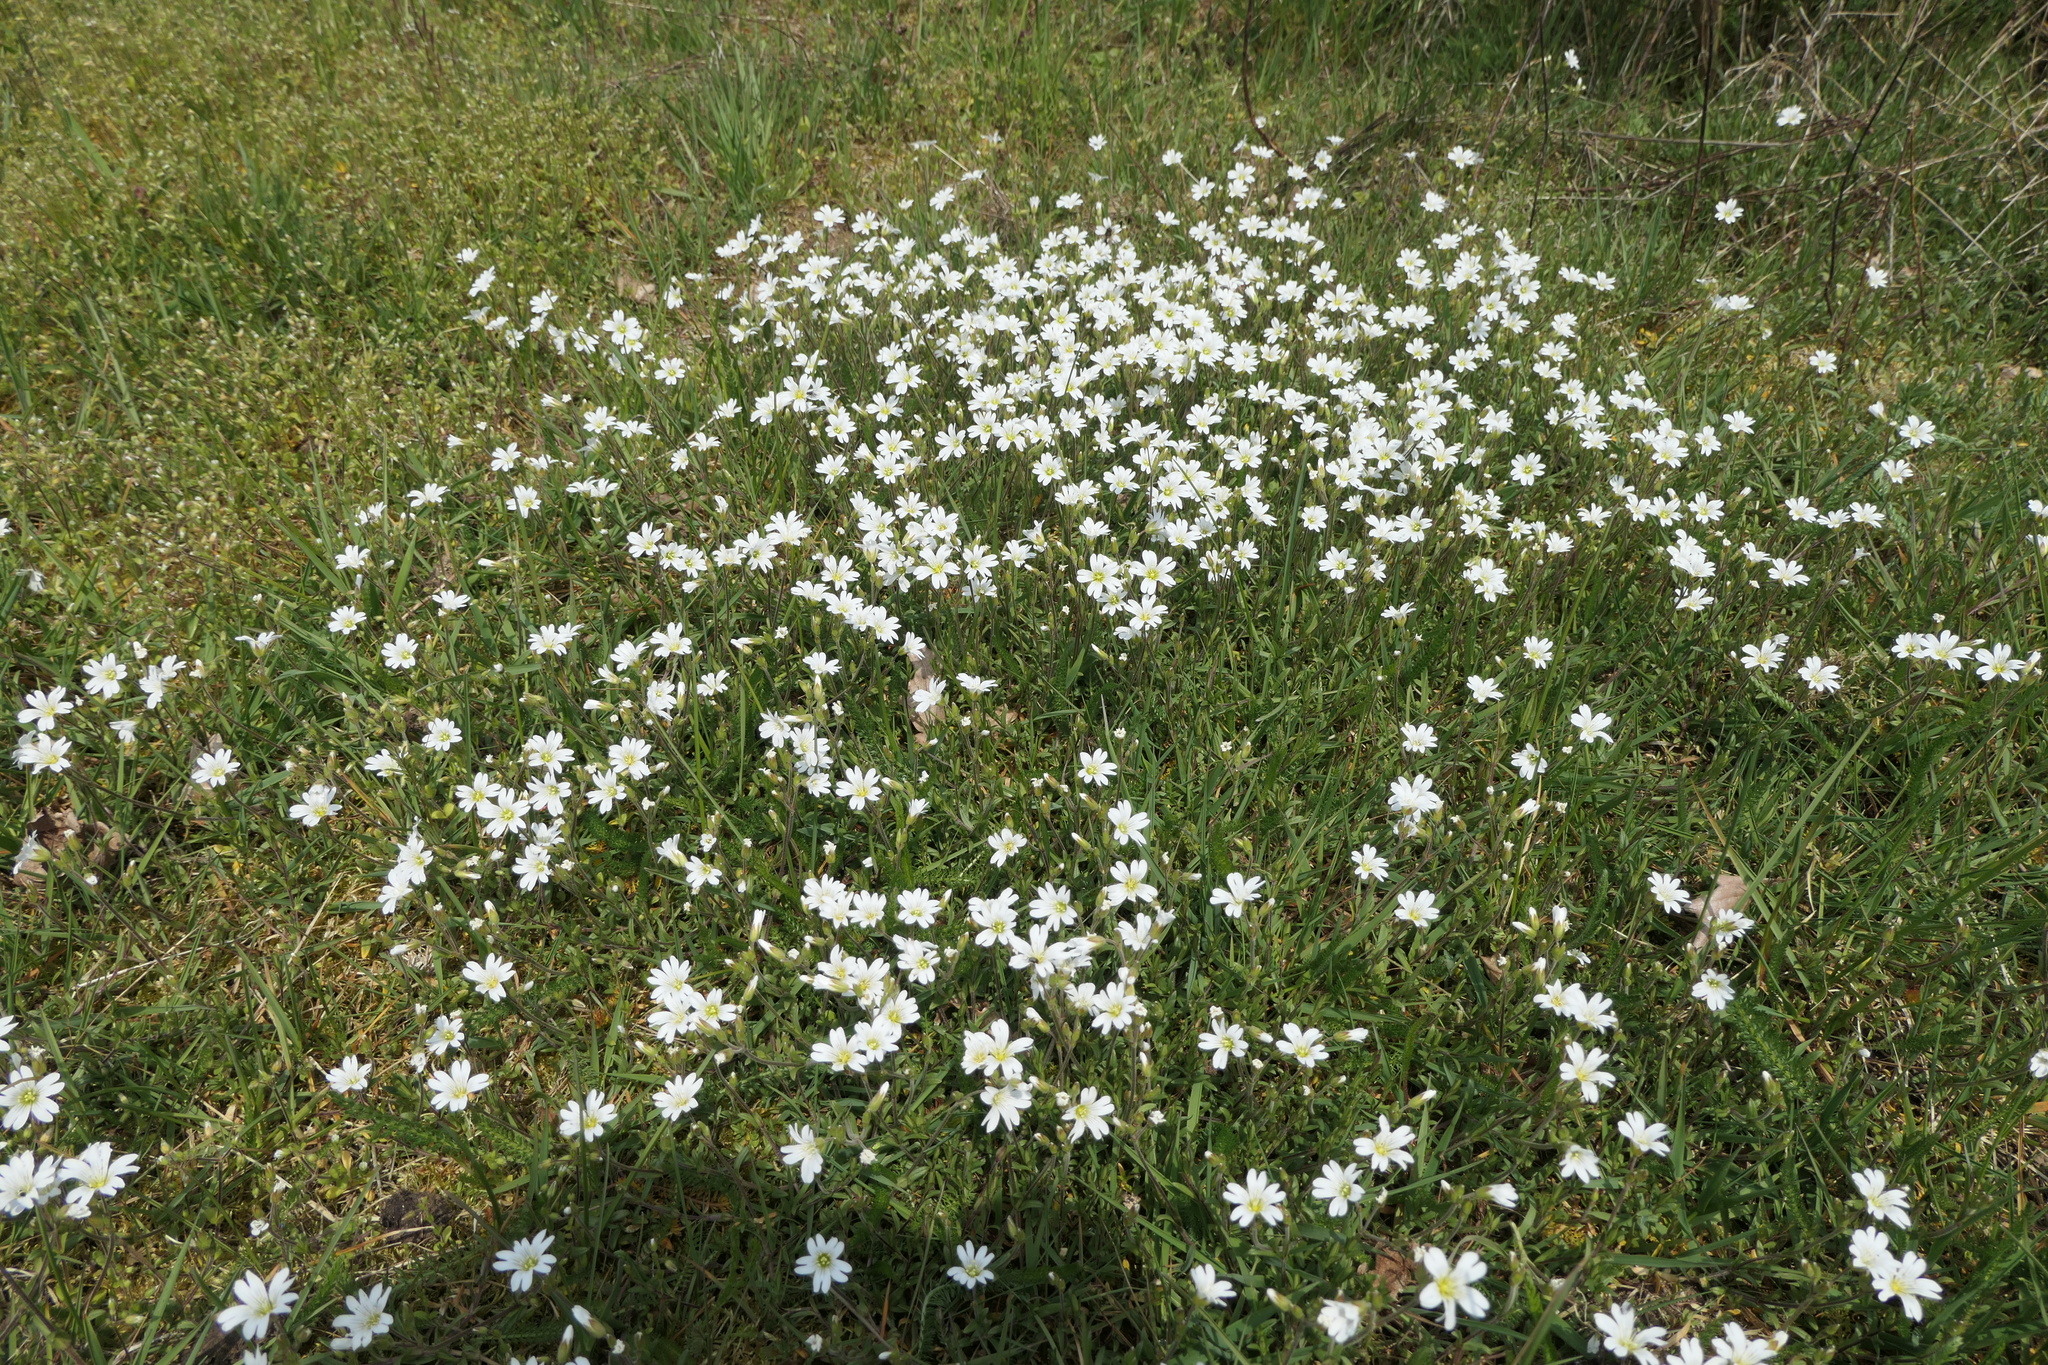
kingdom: Plantae
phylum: Tracheophyta
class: Magnoliopsida
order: Caryophyllales
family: Caryophyllaceae
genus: Cerastium
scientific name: Cerastium arvense
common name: Field mouse-ear
